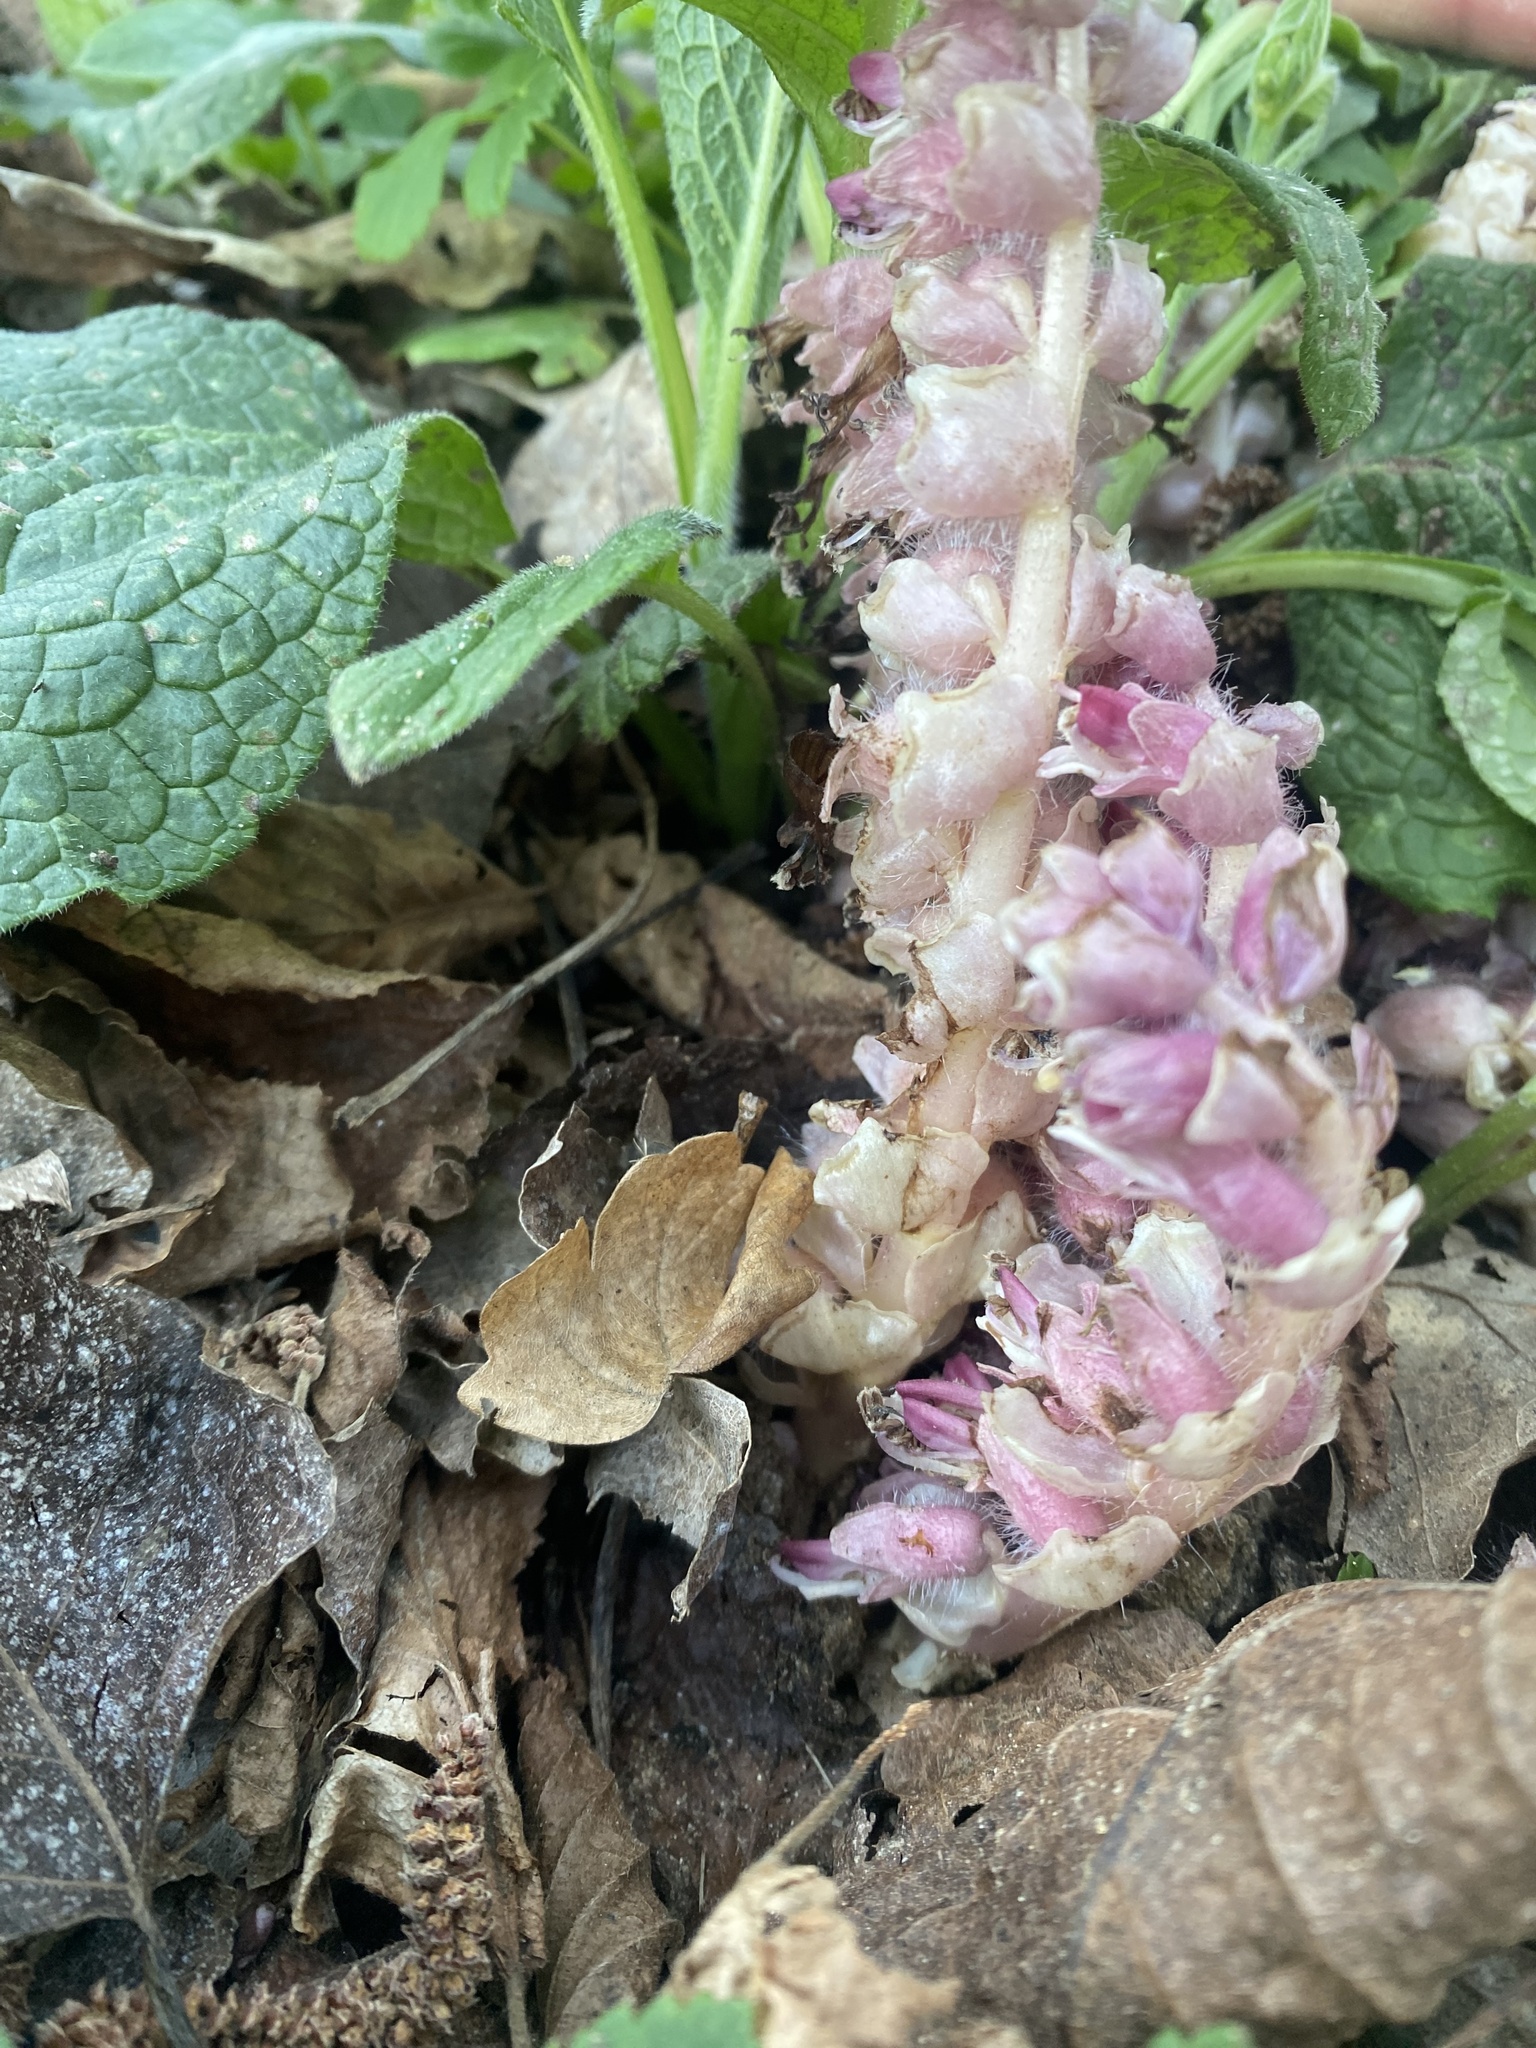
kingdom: Plantae
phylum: Tracheophyta
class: Magnoliopsida
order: Lamiales
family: Orobanchaceae
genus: Lathraea
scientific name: Lathraea squamaria
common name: Toothwort
